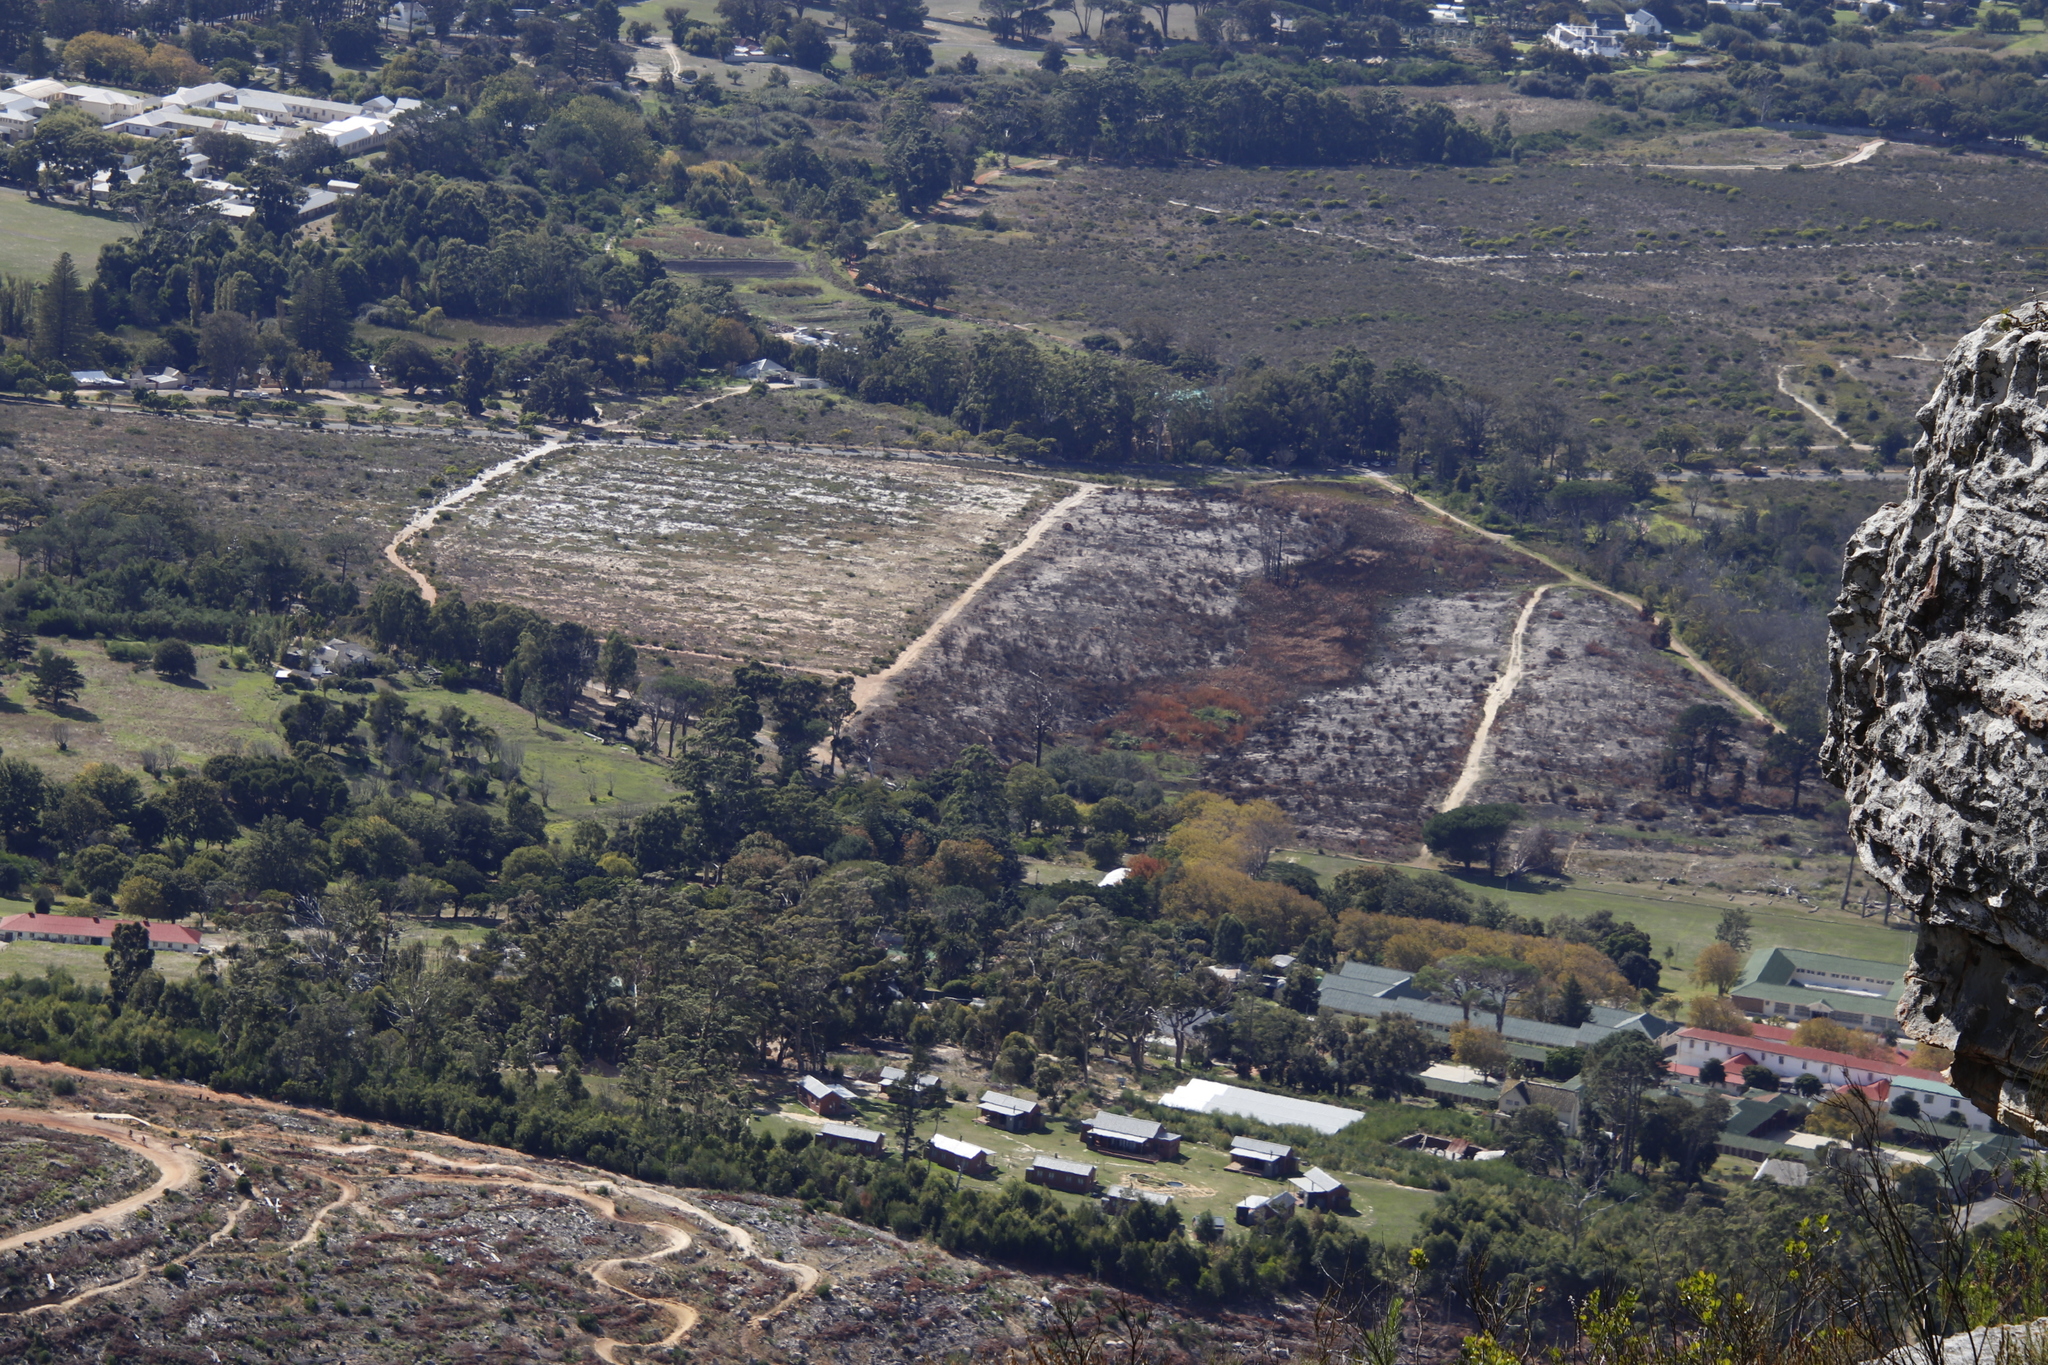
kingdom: Plantae
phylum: Tracheophyta
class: Liliopsida
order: Poales
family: Typhaceae
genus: Typha
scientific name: Typha capensis
